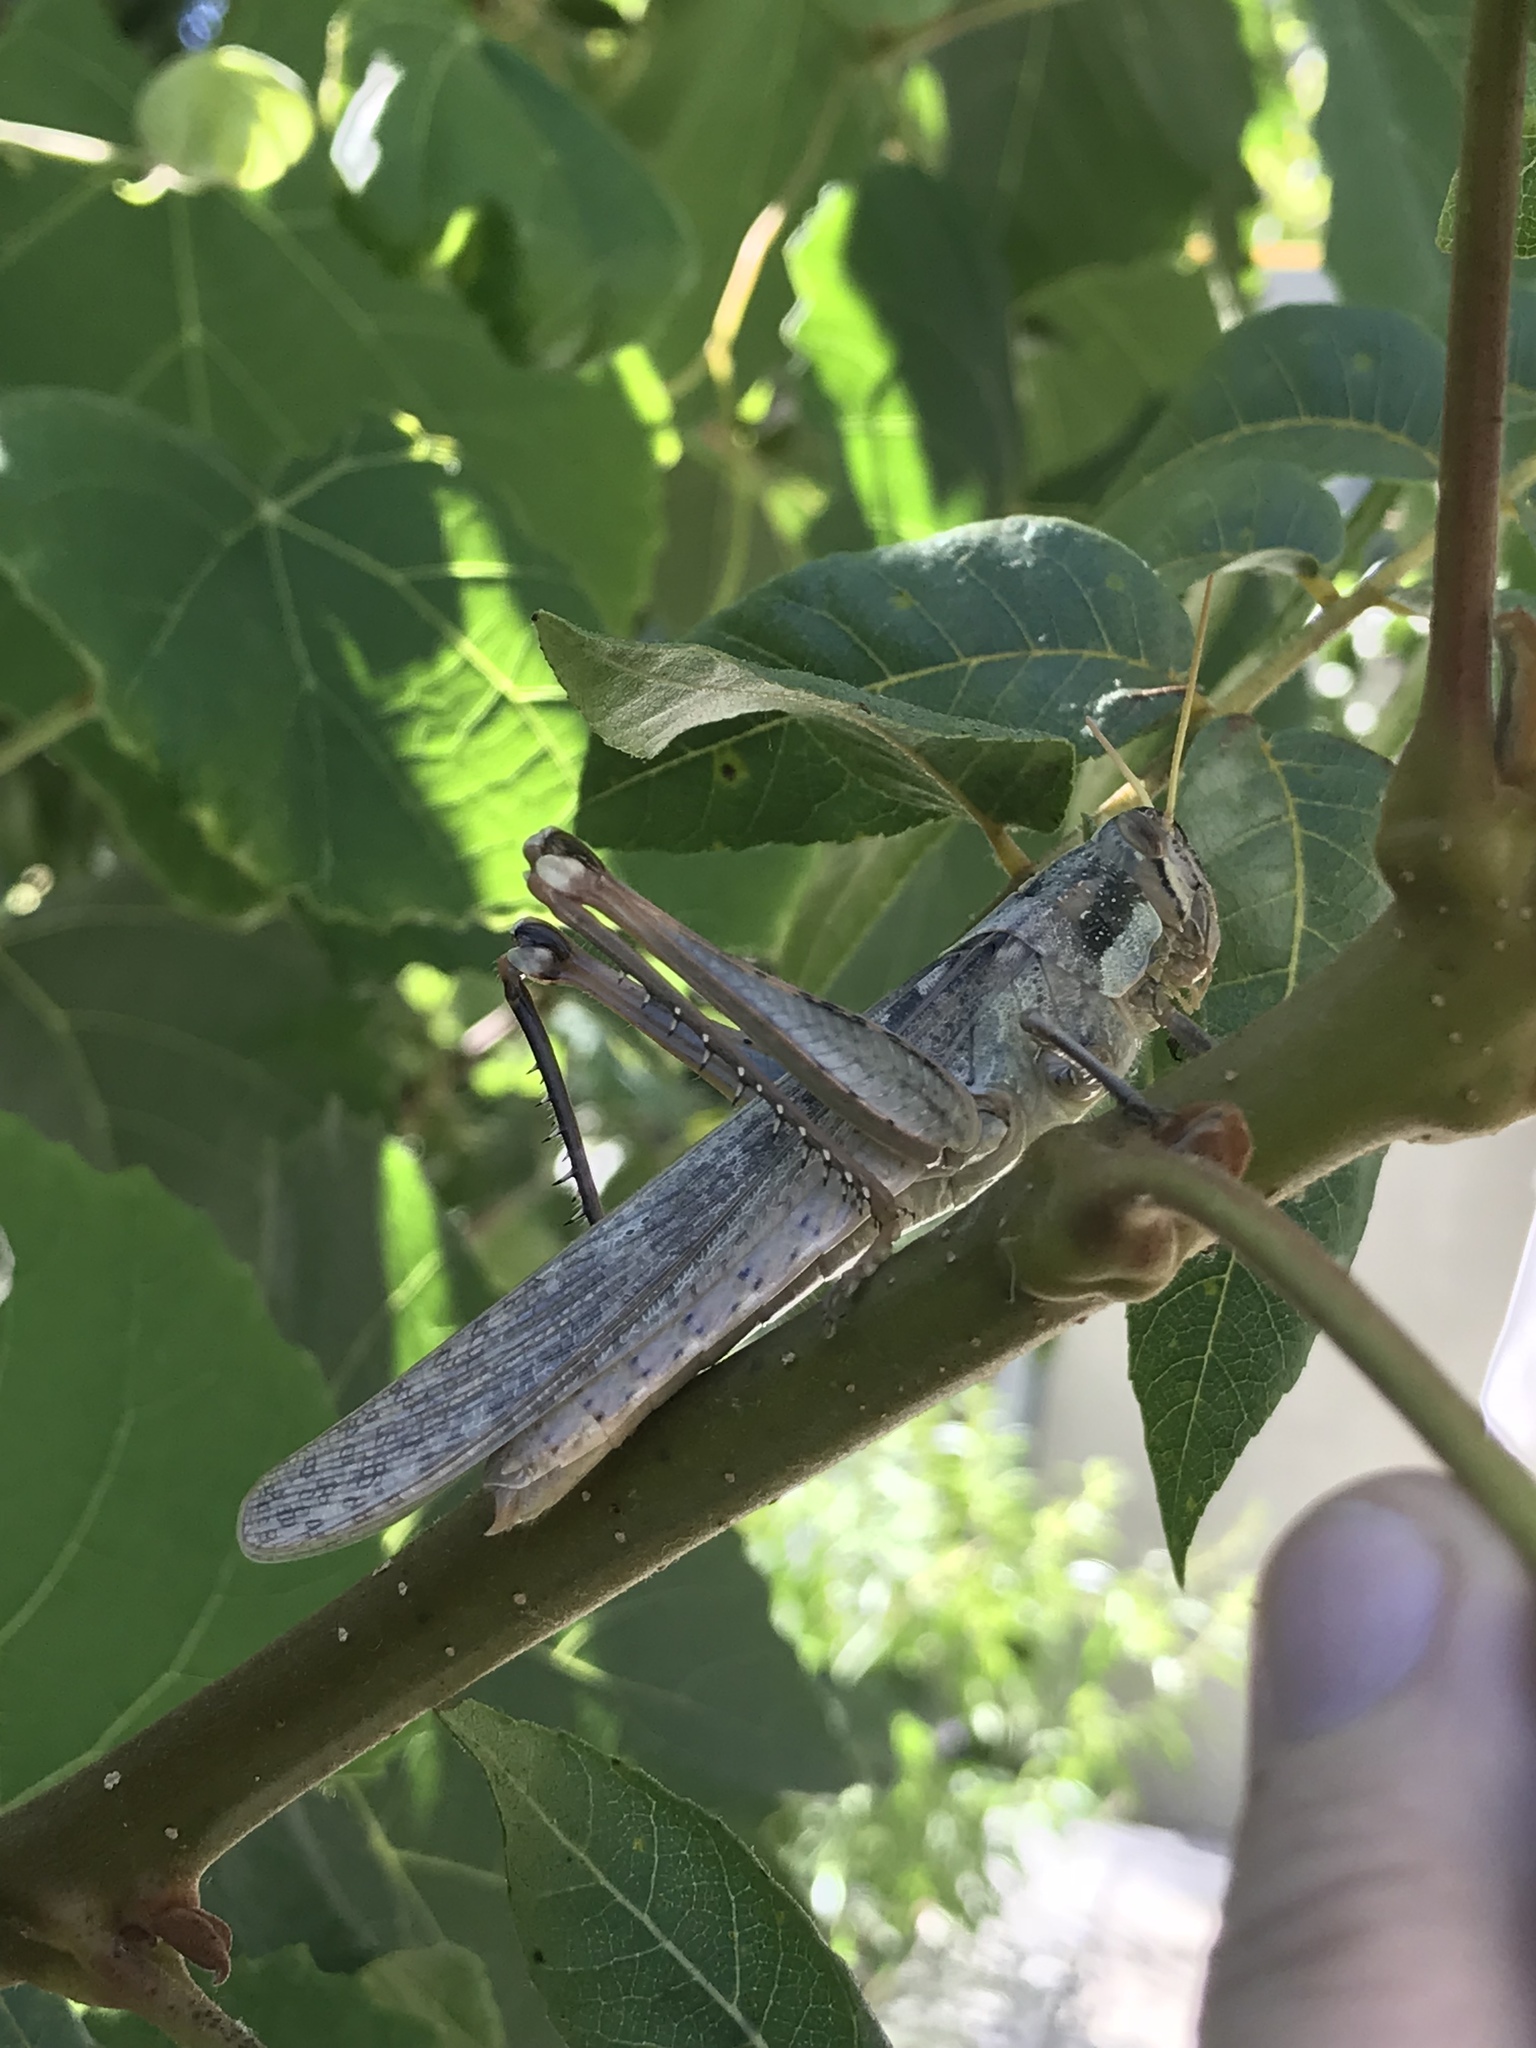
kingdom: Animalia
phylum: Arthropoda
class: Insecta
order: Orthoptera
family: Acrididae
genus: Schistocerca
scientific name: Schistocerca nitens
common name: Vagrant grasshopper
